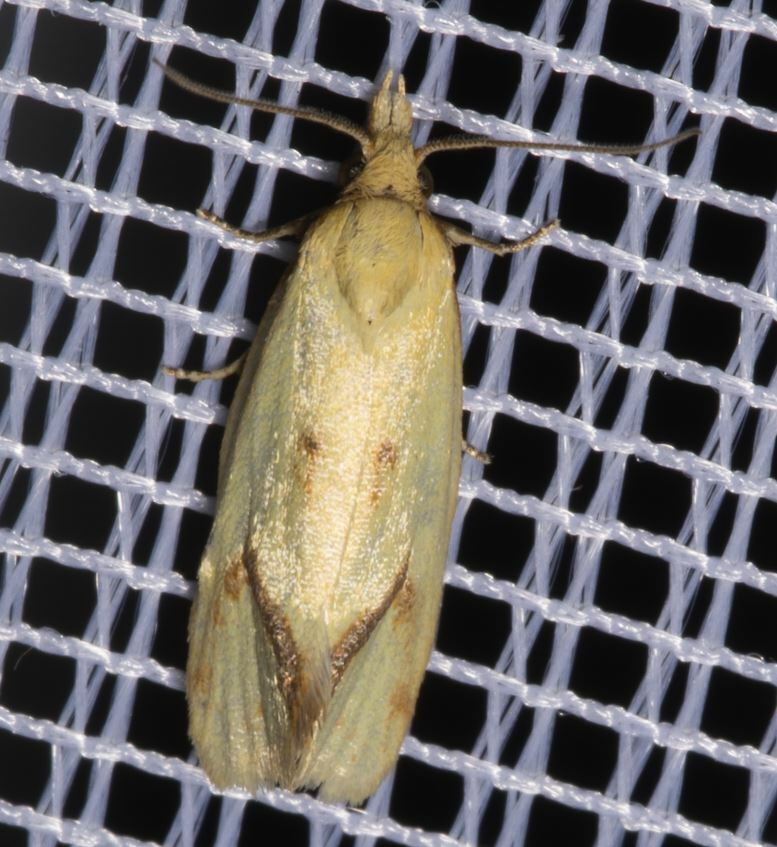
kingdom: Animalia
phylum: Arthropoda
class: Insecta
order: Lepidoptera
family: Tortricidae
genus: Agapeta
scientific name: Agapeta hamana
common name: Common yellow conch
